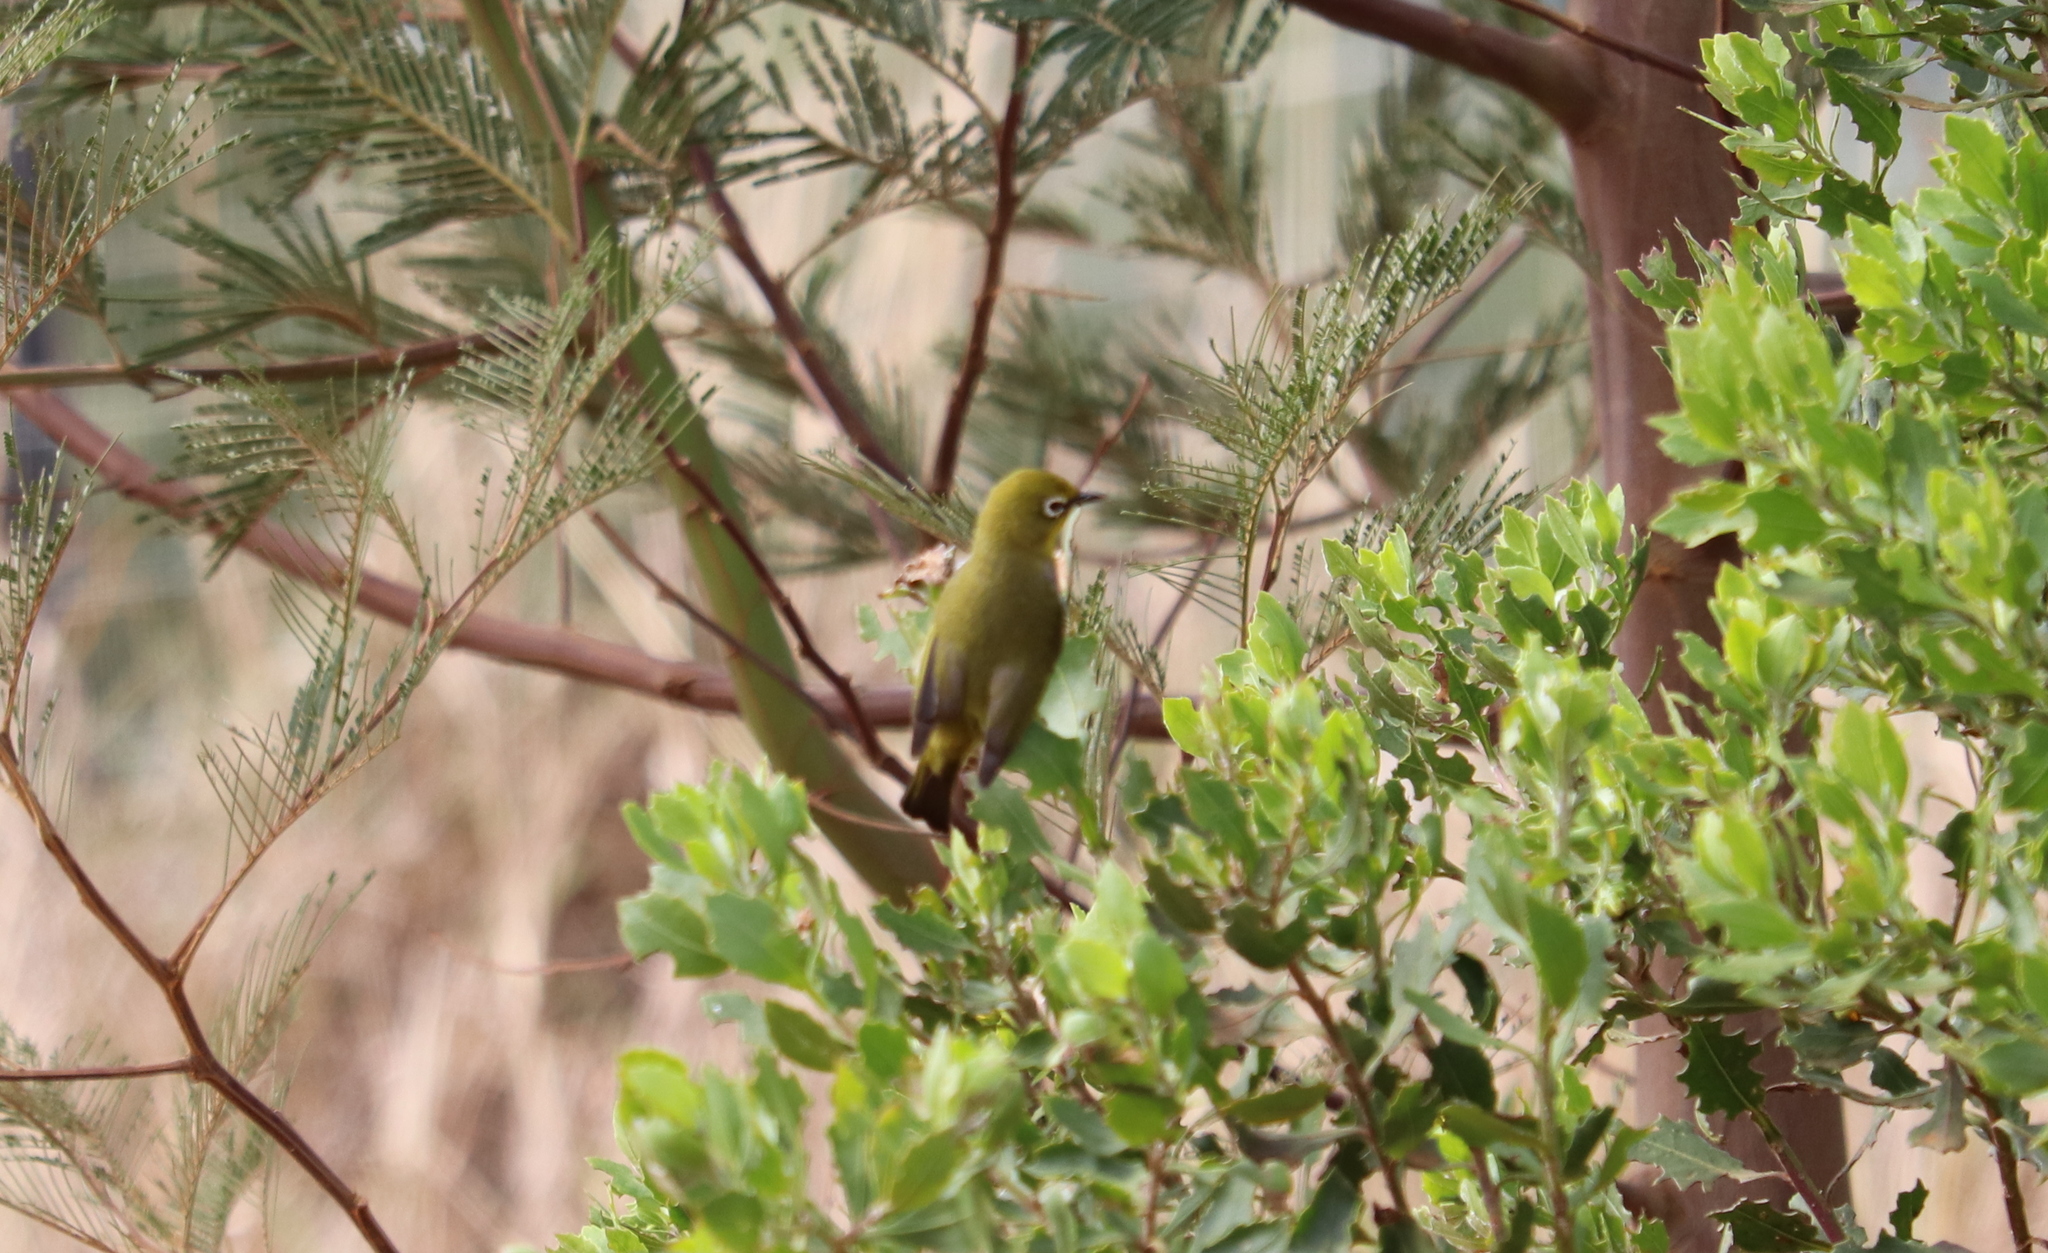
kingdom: Animalia
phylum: Chordata
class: Aves
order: Passeriformes
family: Zosteropidae
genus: Zosterops
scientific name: Zosterops virens
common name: Cape white-eye
